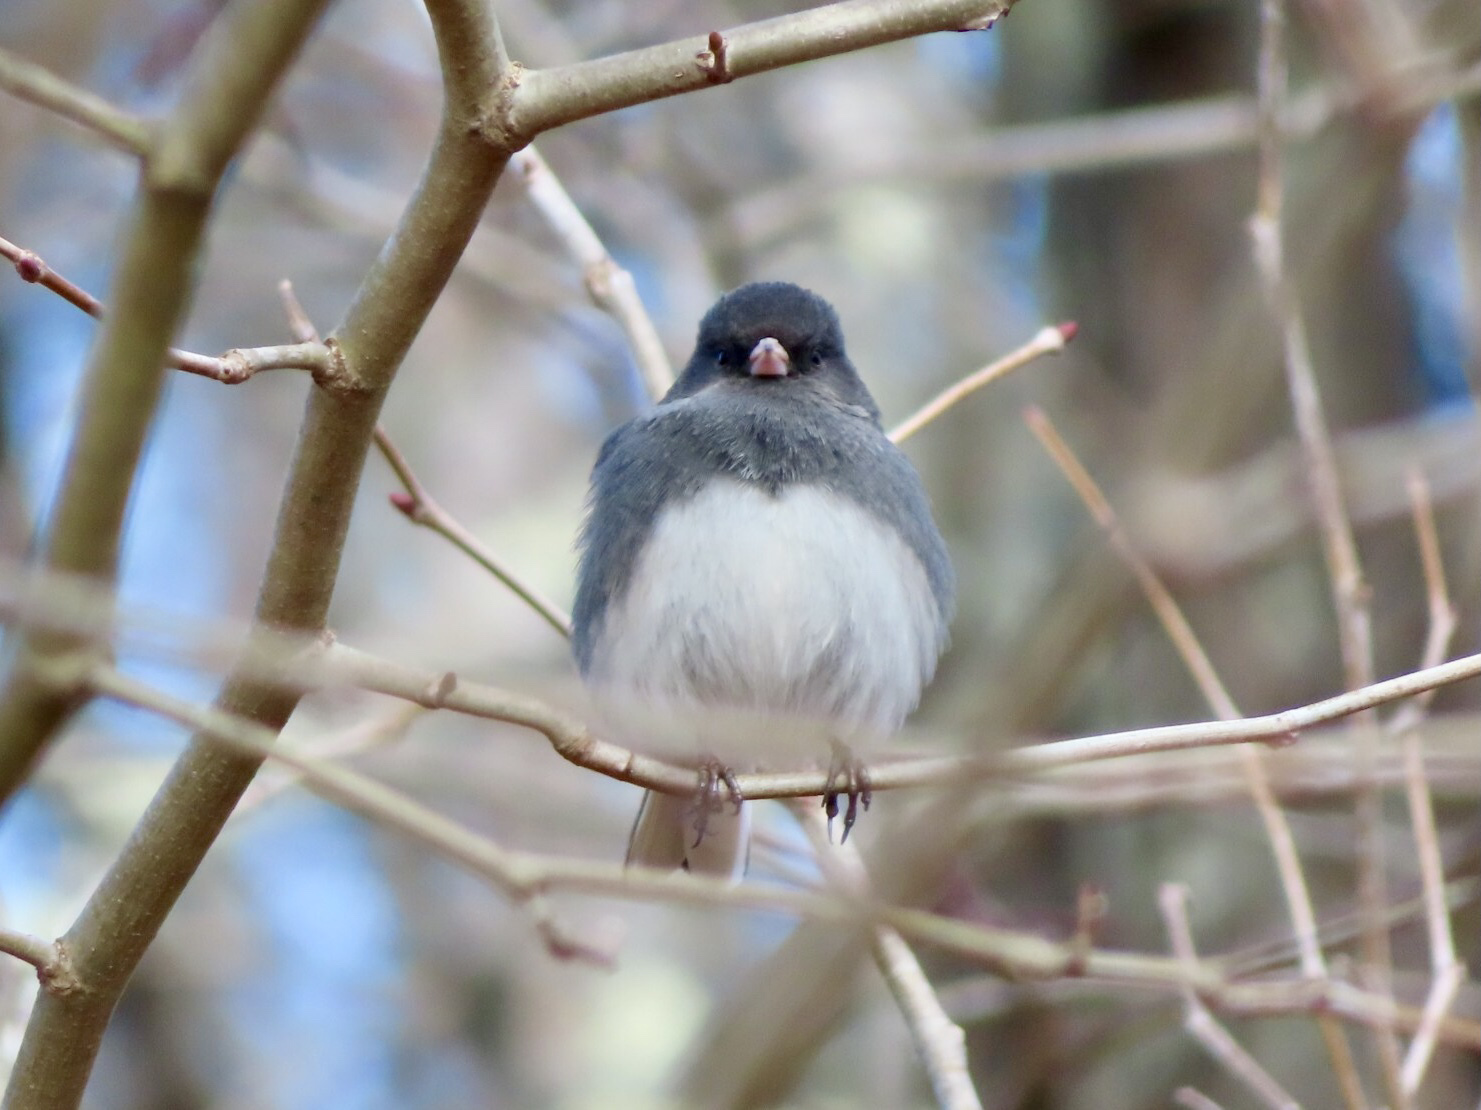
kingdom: Animalia
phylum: Chordata
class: Aves
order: Passeriformes
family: Passerellidae
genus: Junco
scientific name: Junco hyemalis
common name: Dark-eyed junco
